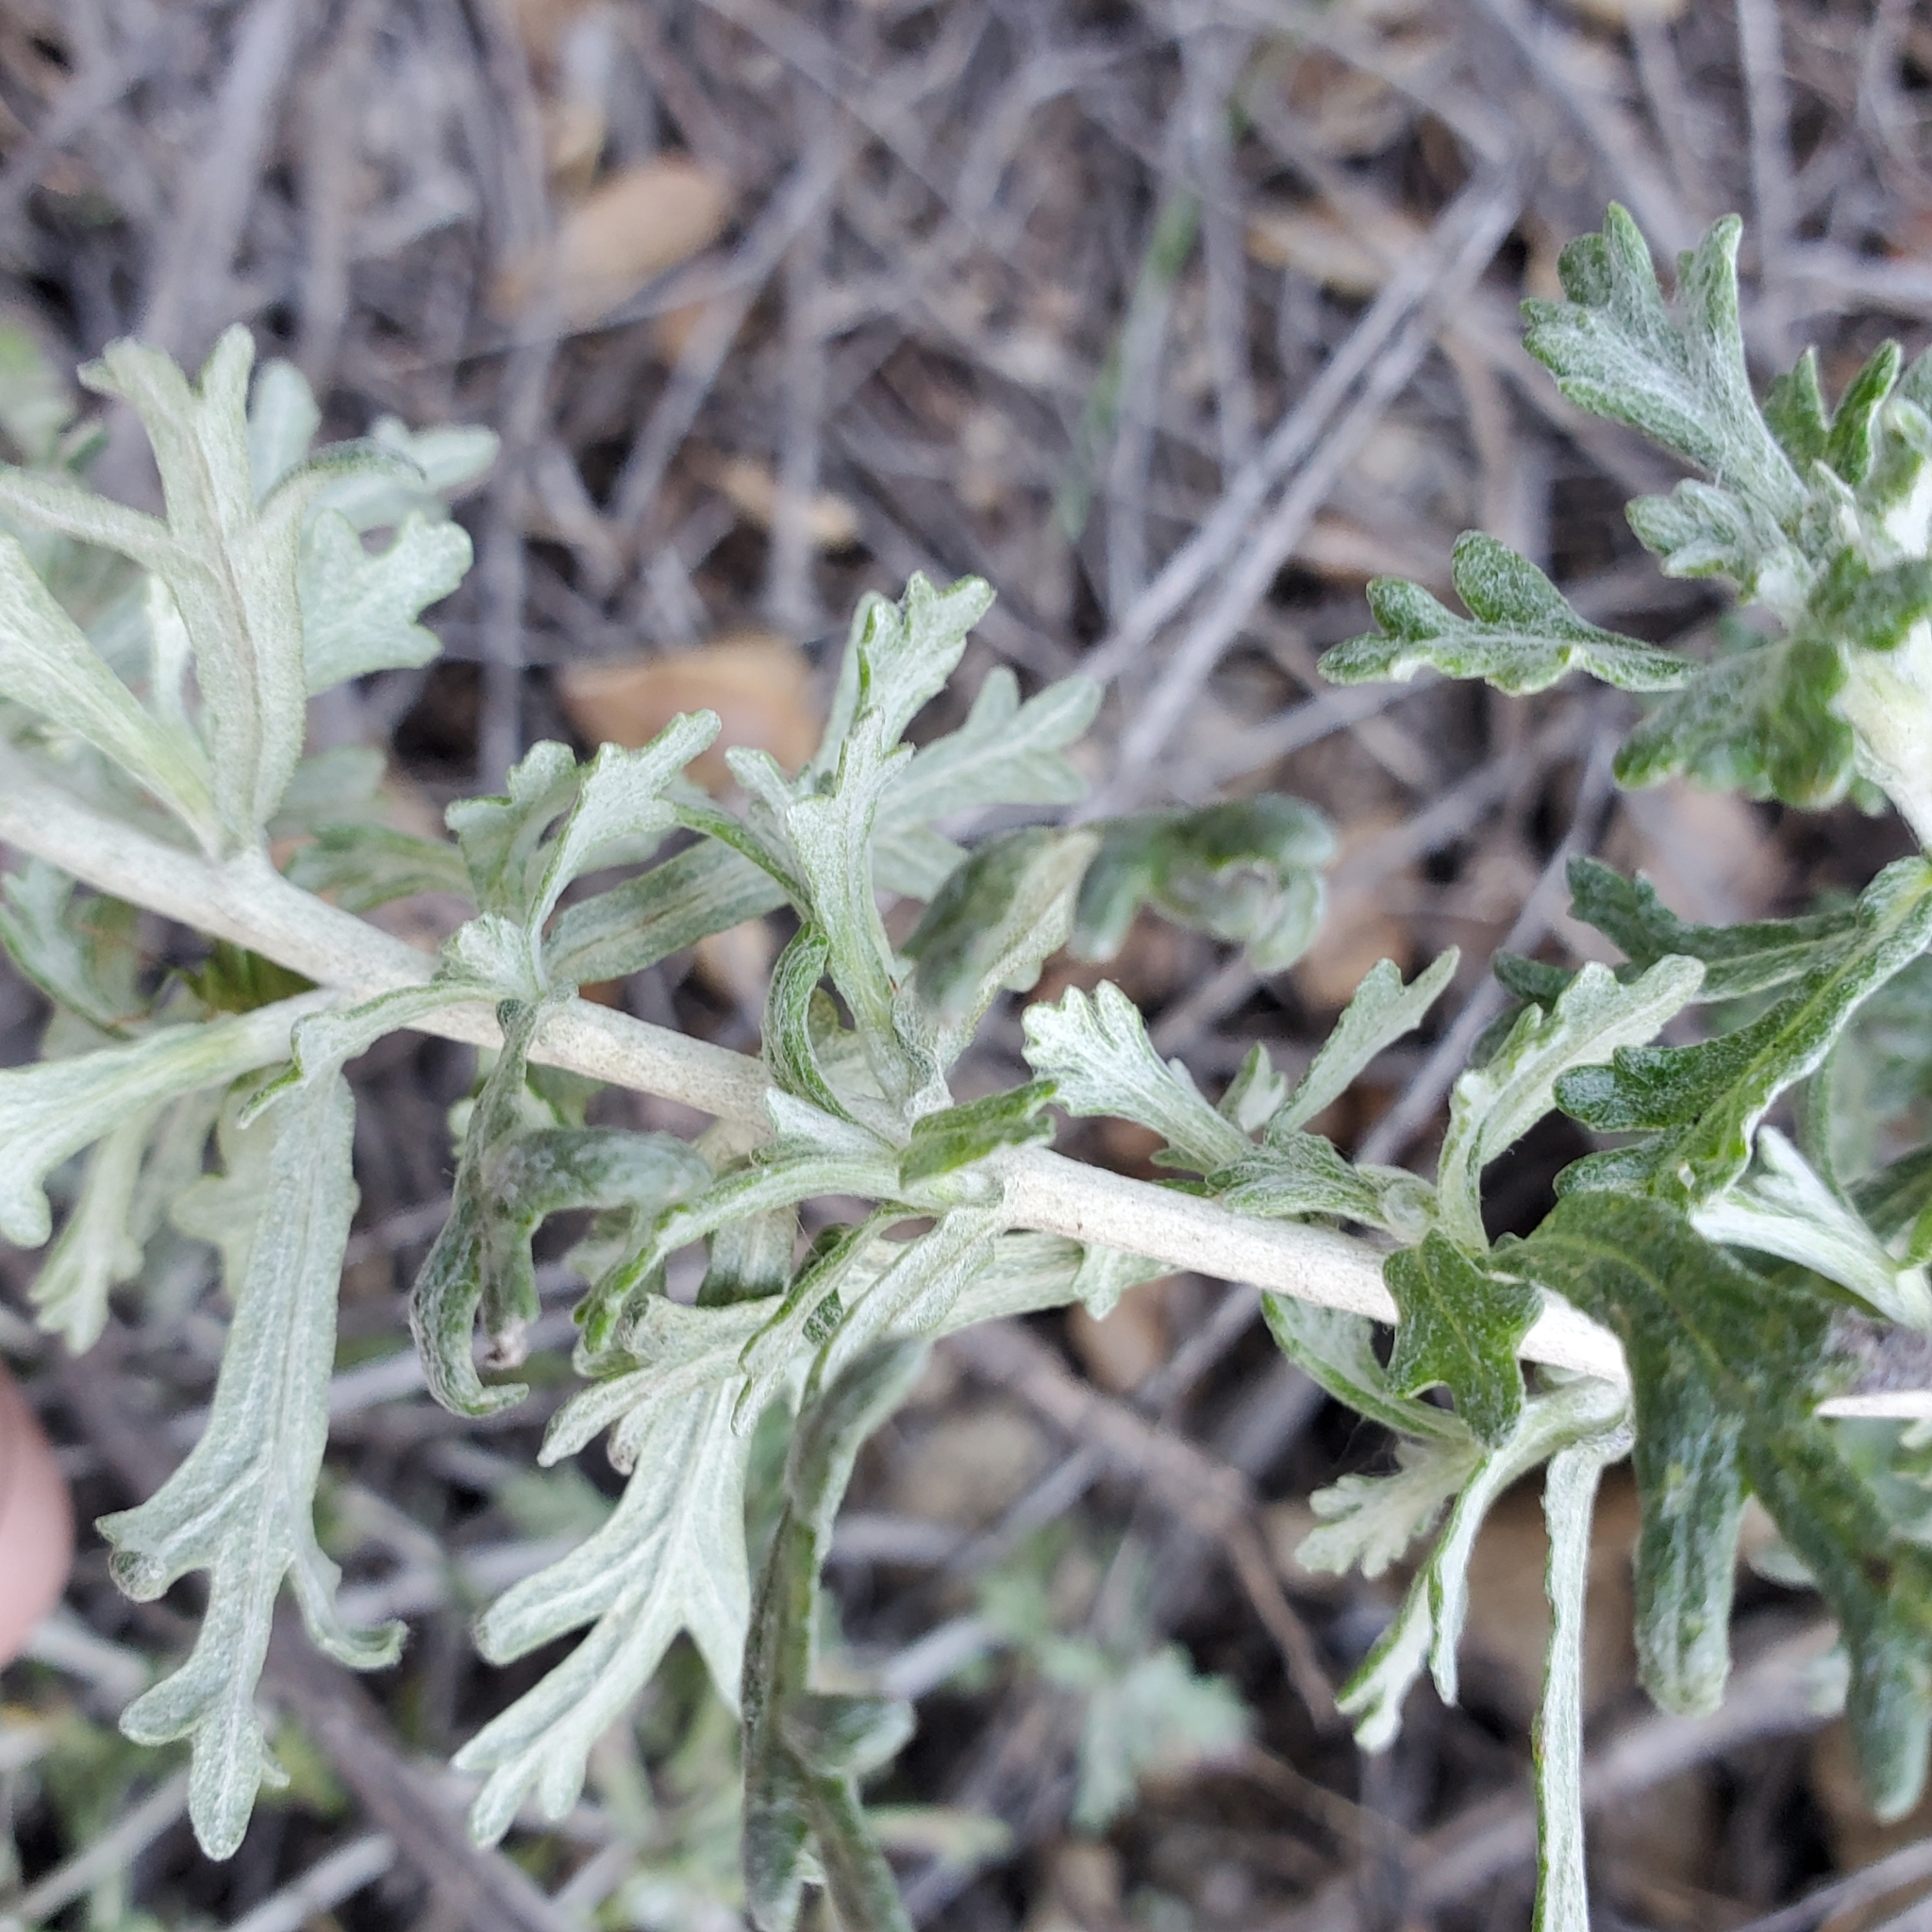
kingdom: Plantae
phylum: Tracheophyta
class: Magnoliopsida
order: Asterales
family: Asteraceae
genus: Eriophyllum
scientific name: Eriophyllum confertiflorum
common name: Golden-yarrow
